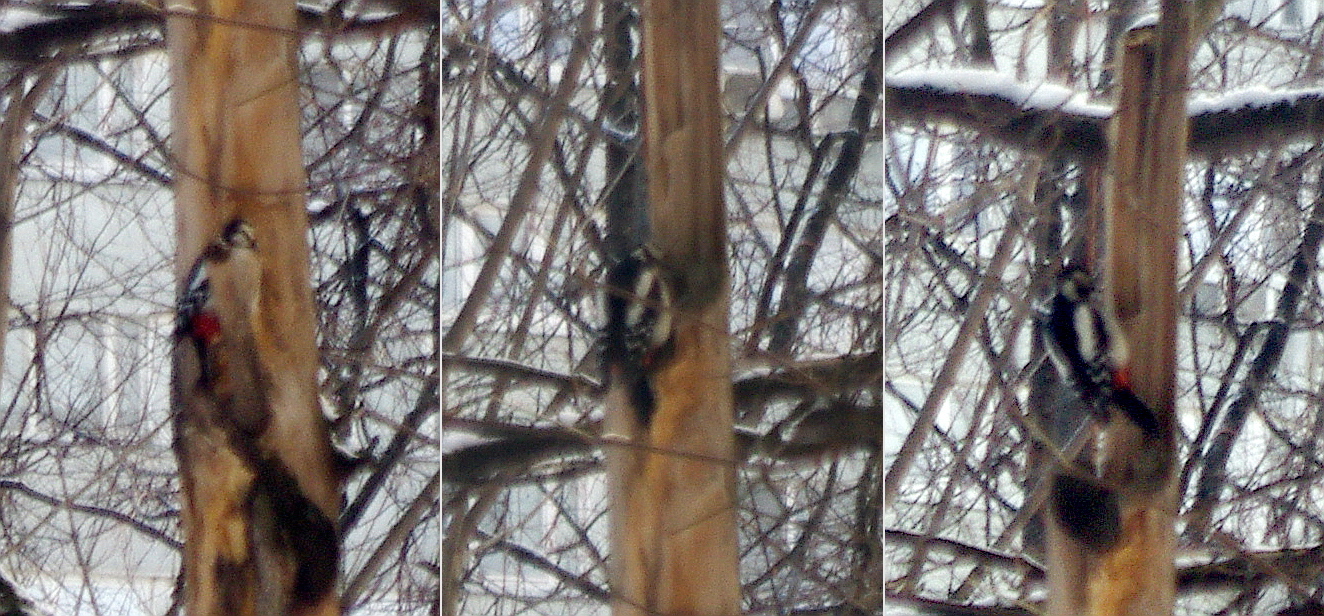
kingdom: Animalia
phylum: Chordata
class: Aves
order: Piciformes
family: Picidae
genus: Dendrocopos
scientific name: Dendrocopos major
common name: Great spotted woodpecker
